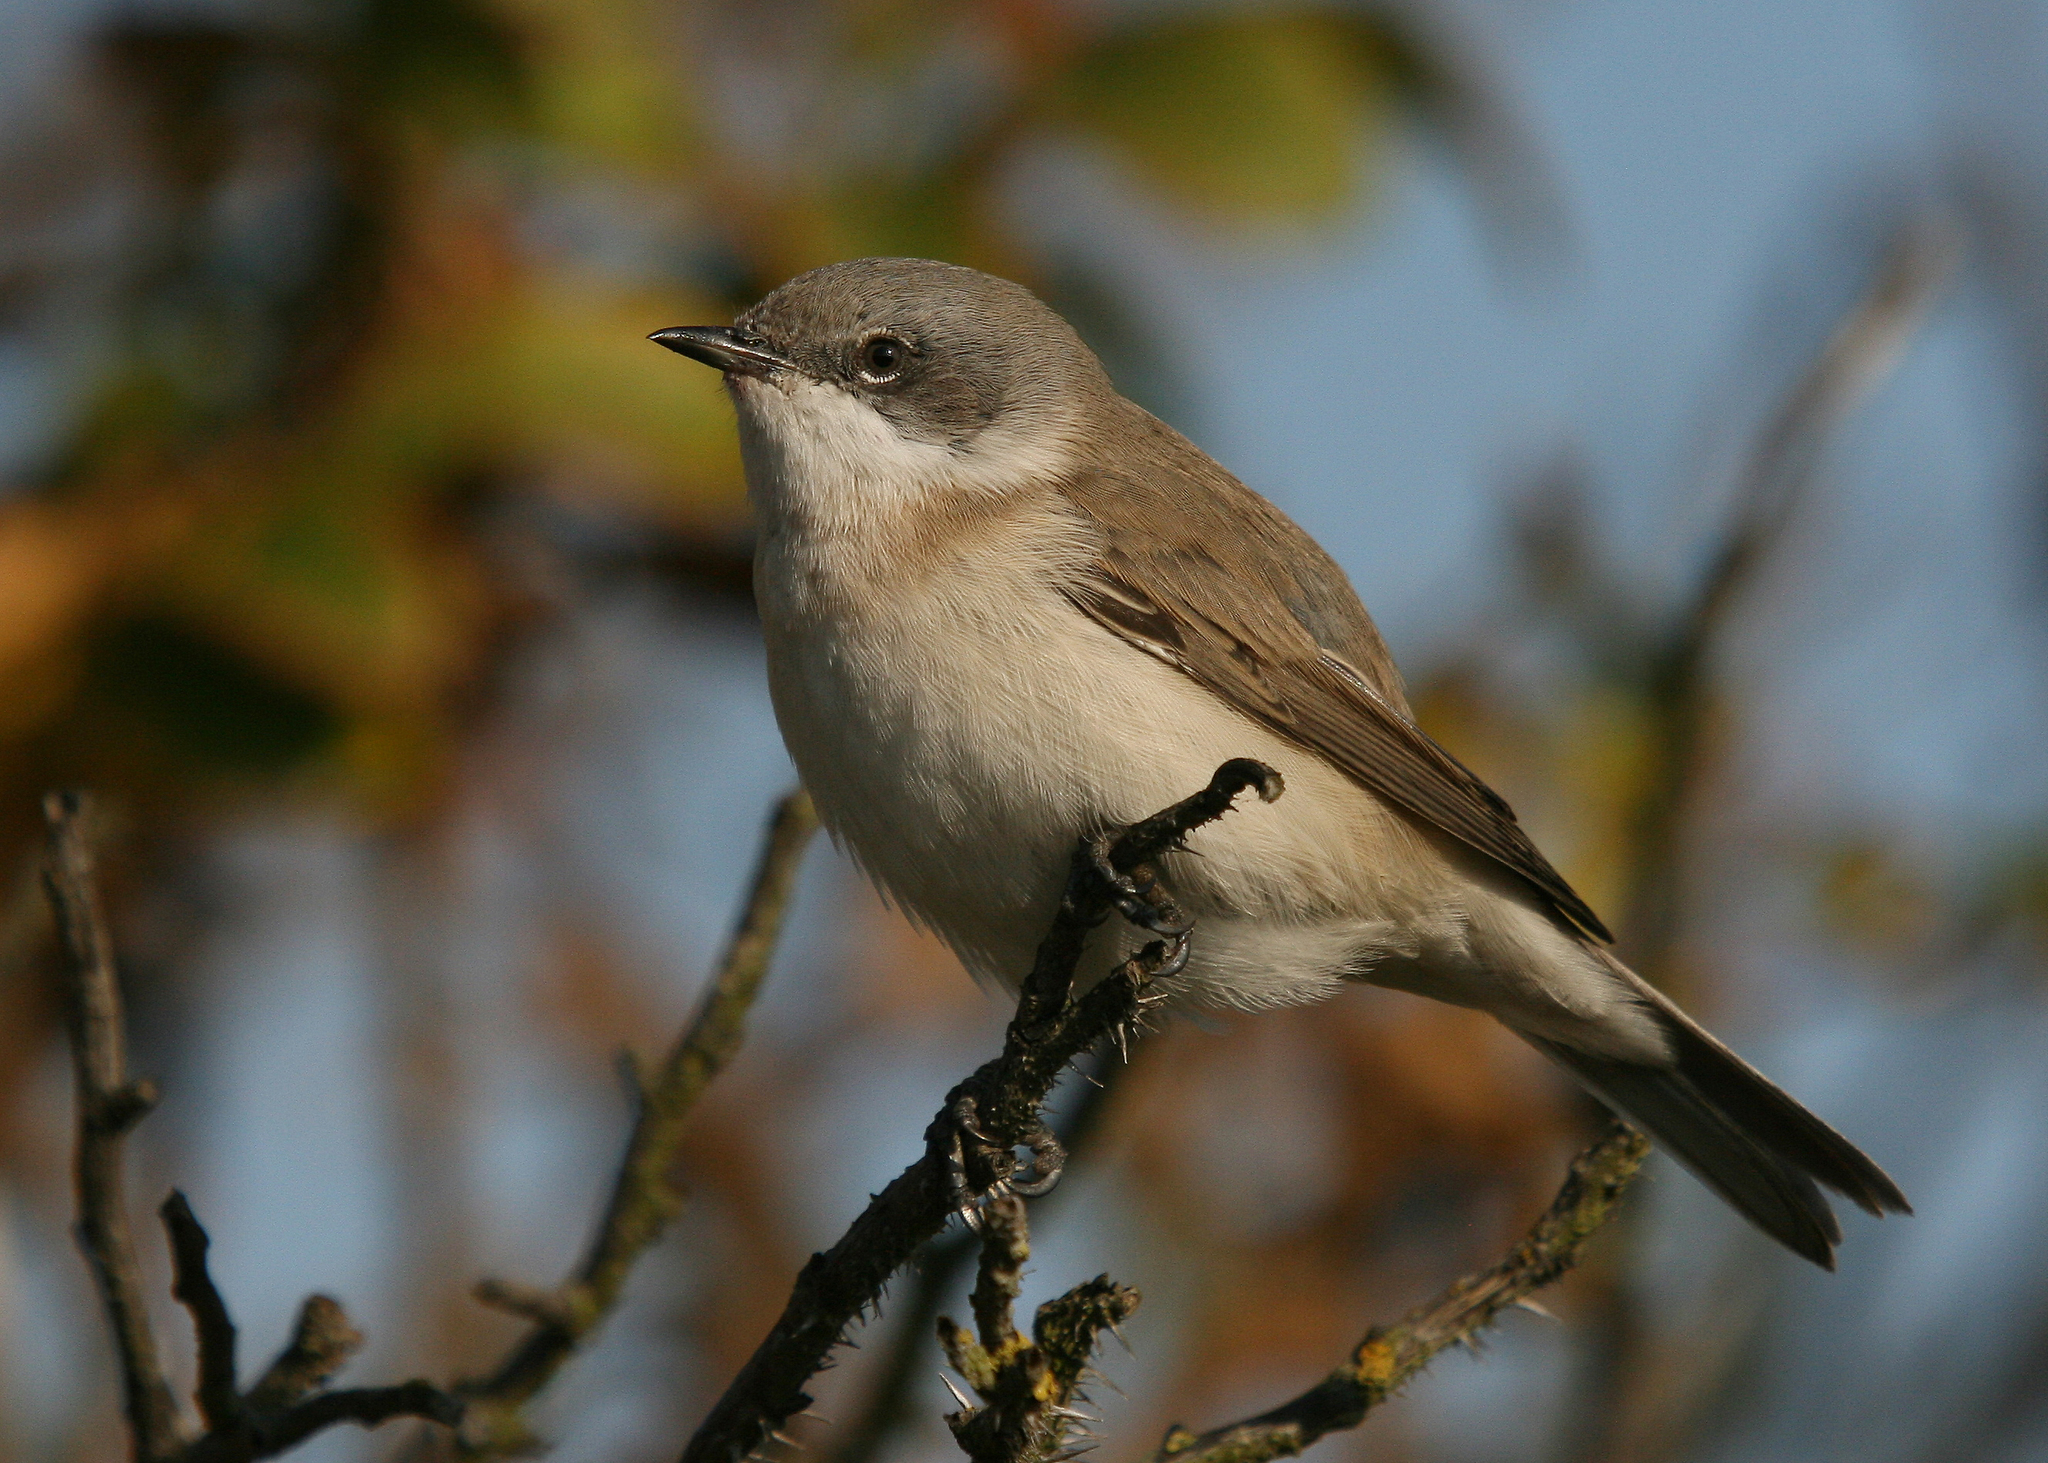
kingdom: Animalia
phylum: Chordata
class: Aves
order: Passeriformes
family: Sylviidae
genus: Sylvia
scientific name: Sylvia curruca
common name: Lesser whitethroat
